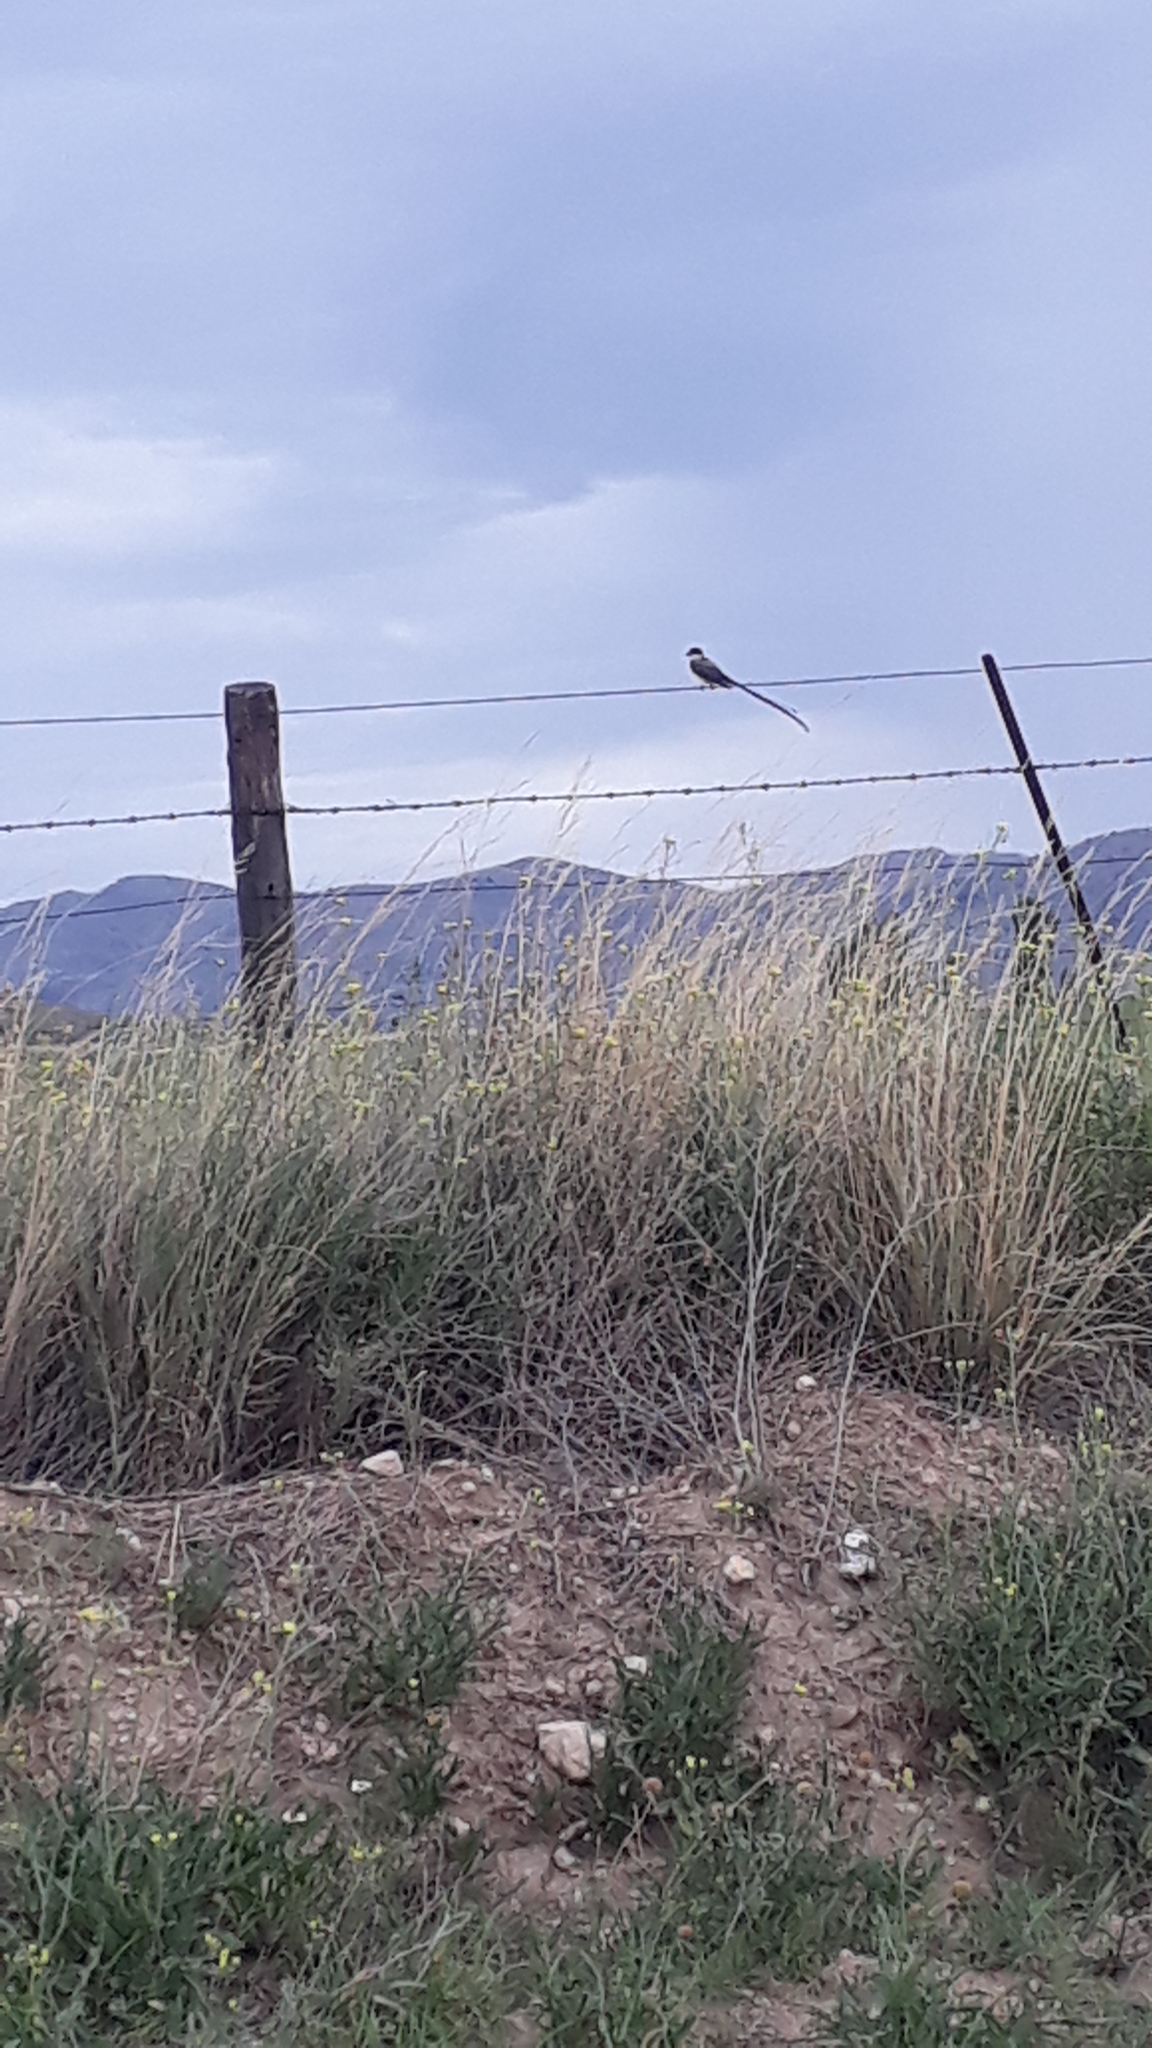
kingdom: Animalia
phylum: Chordata
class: Aves
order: Passeriformes
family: Tyrannidae
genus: Tyrannus
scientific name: Tyrannus savana
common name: Fork-tailed flycatcher
